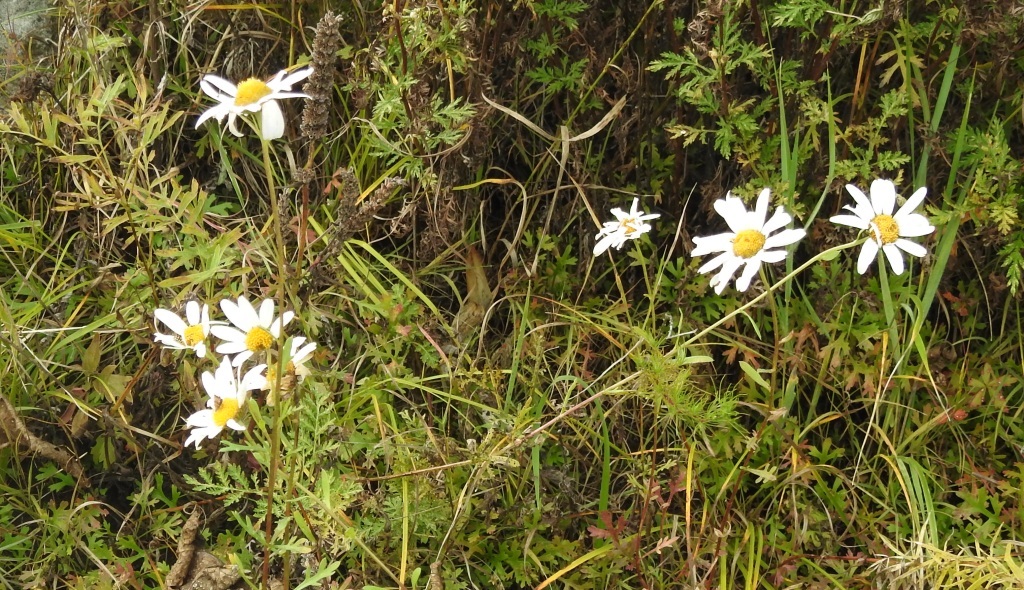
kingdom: Plantae
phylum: Tracheophyta
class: Magnoliopsida
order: Asterales
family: Asteraceae
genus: Chrysanthemum
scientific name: Chrysanthemum zawadzkii
